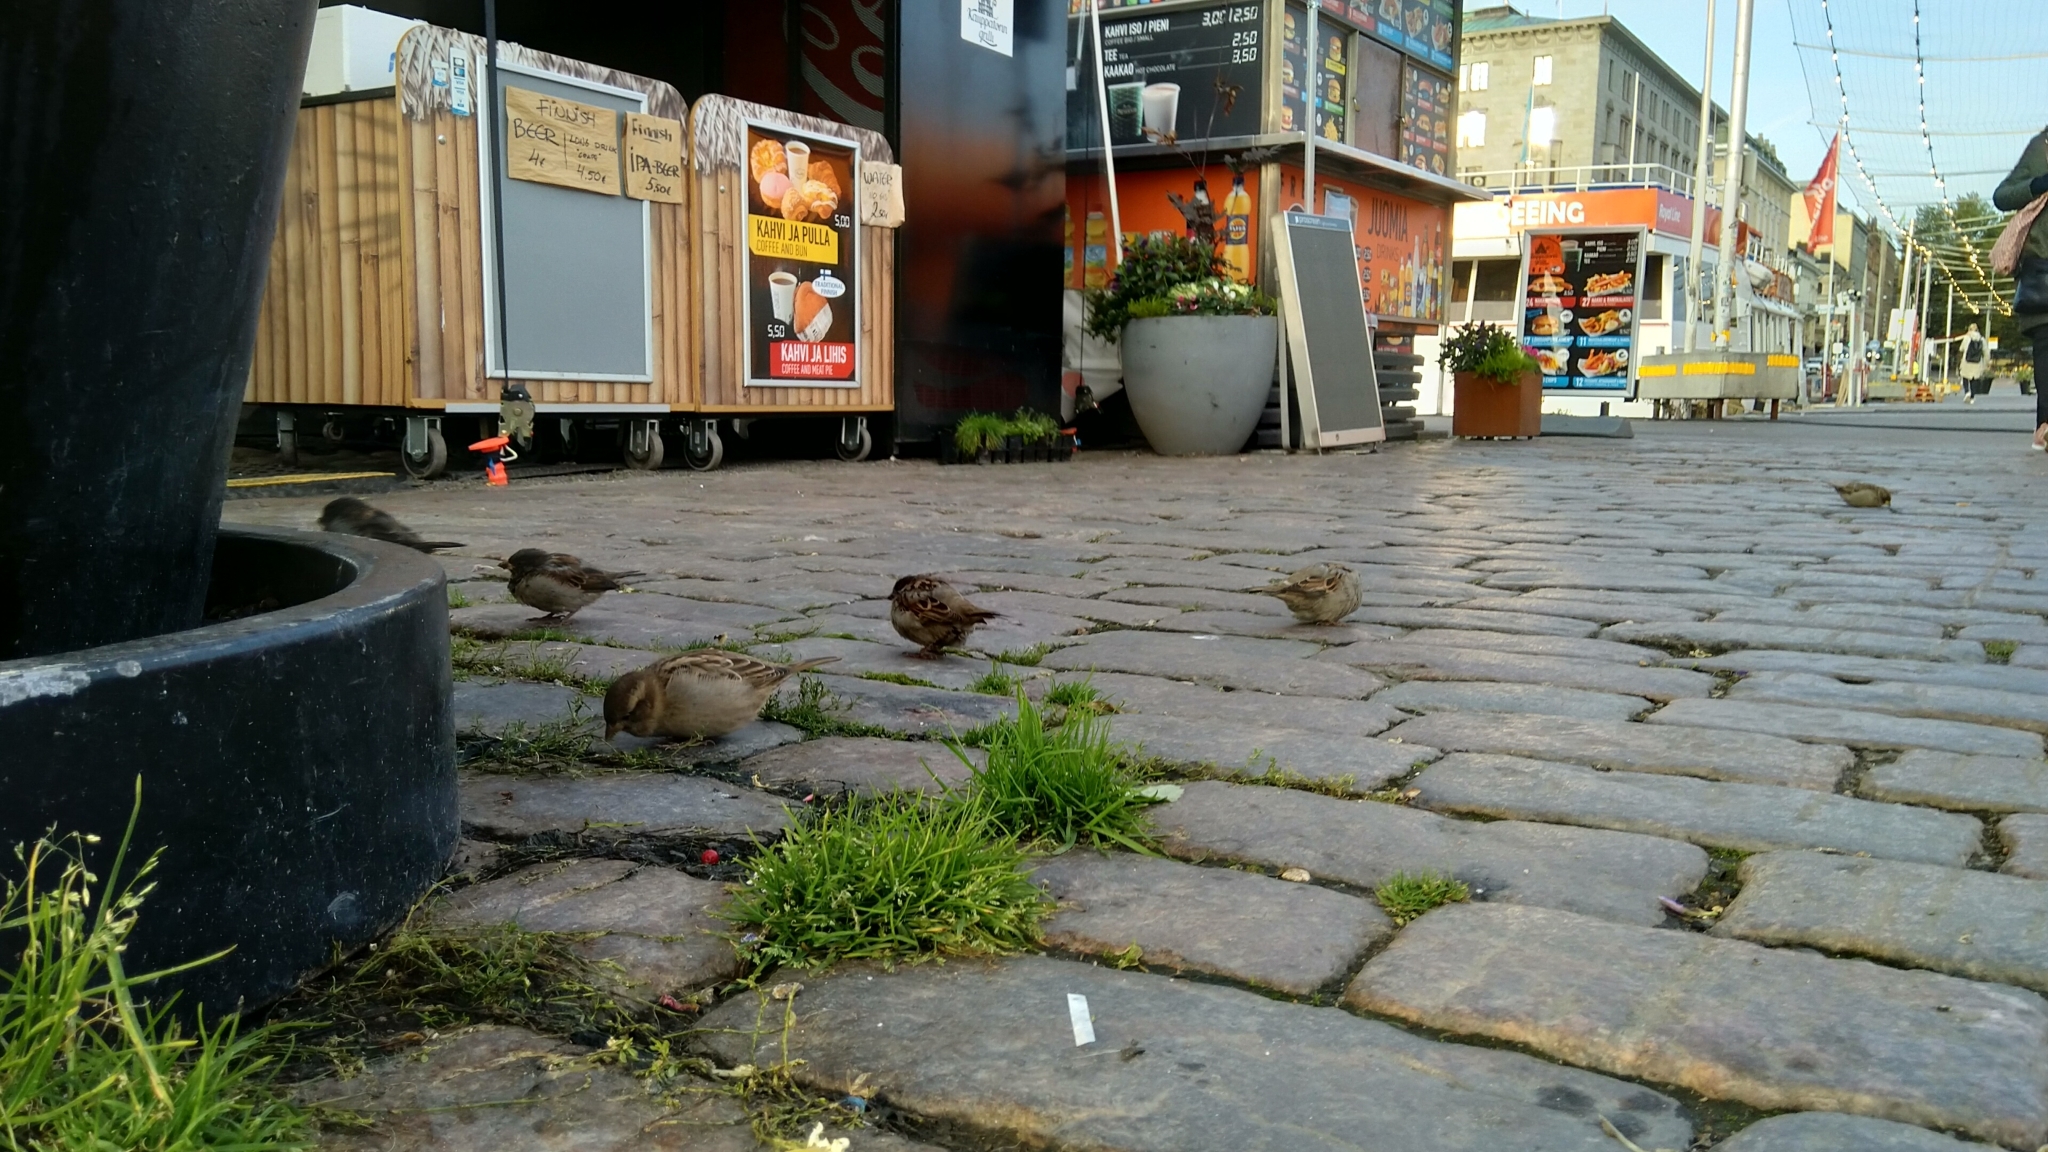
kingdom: Animalia
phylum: Chordata
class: Aves
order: Passeriformes
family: Passeridae
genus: Passer
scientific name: Passer domesticus
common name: House sparrow
